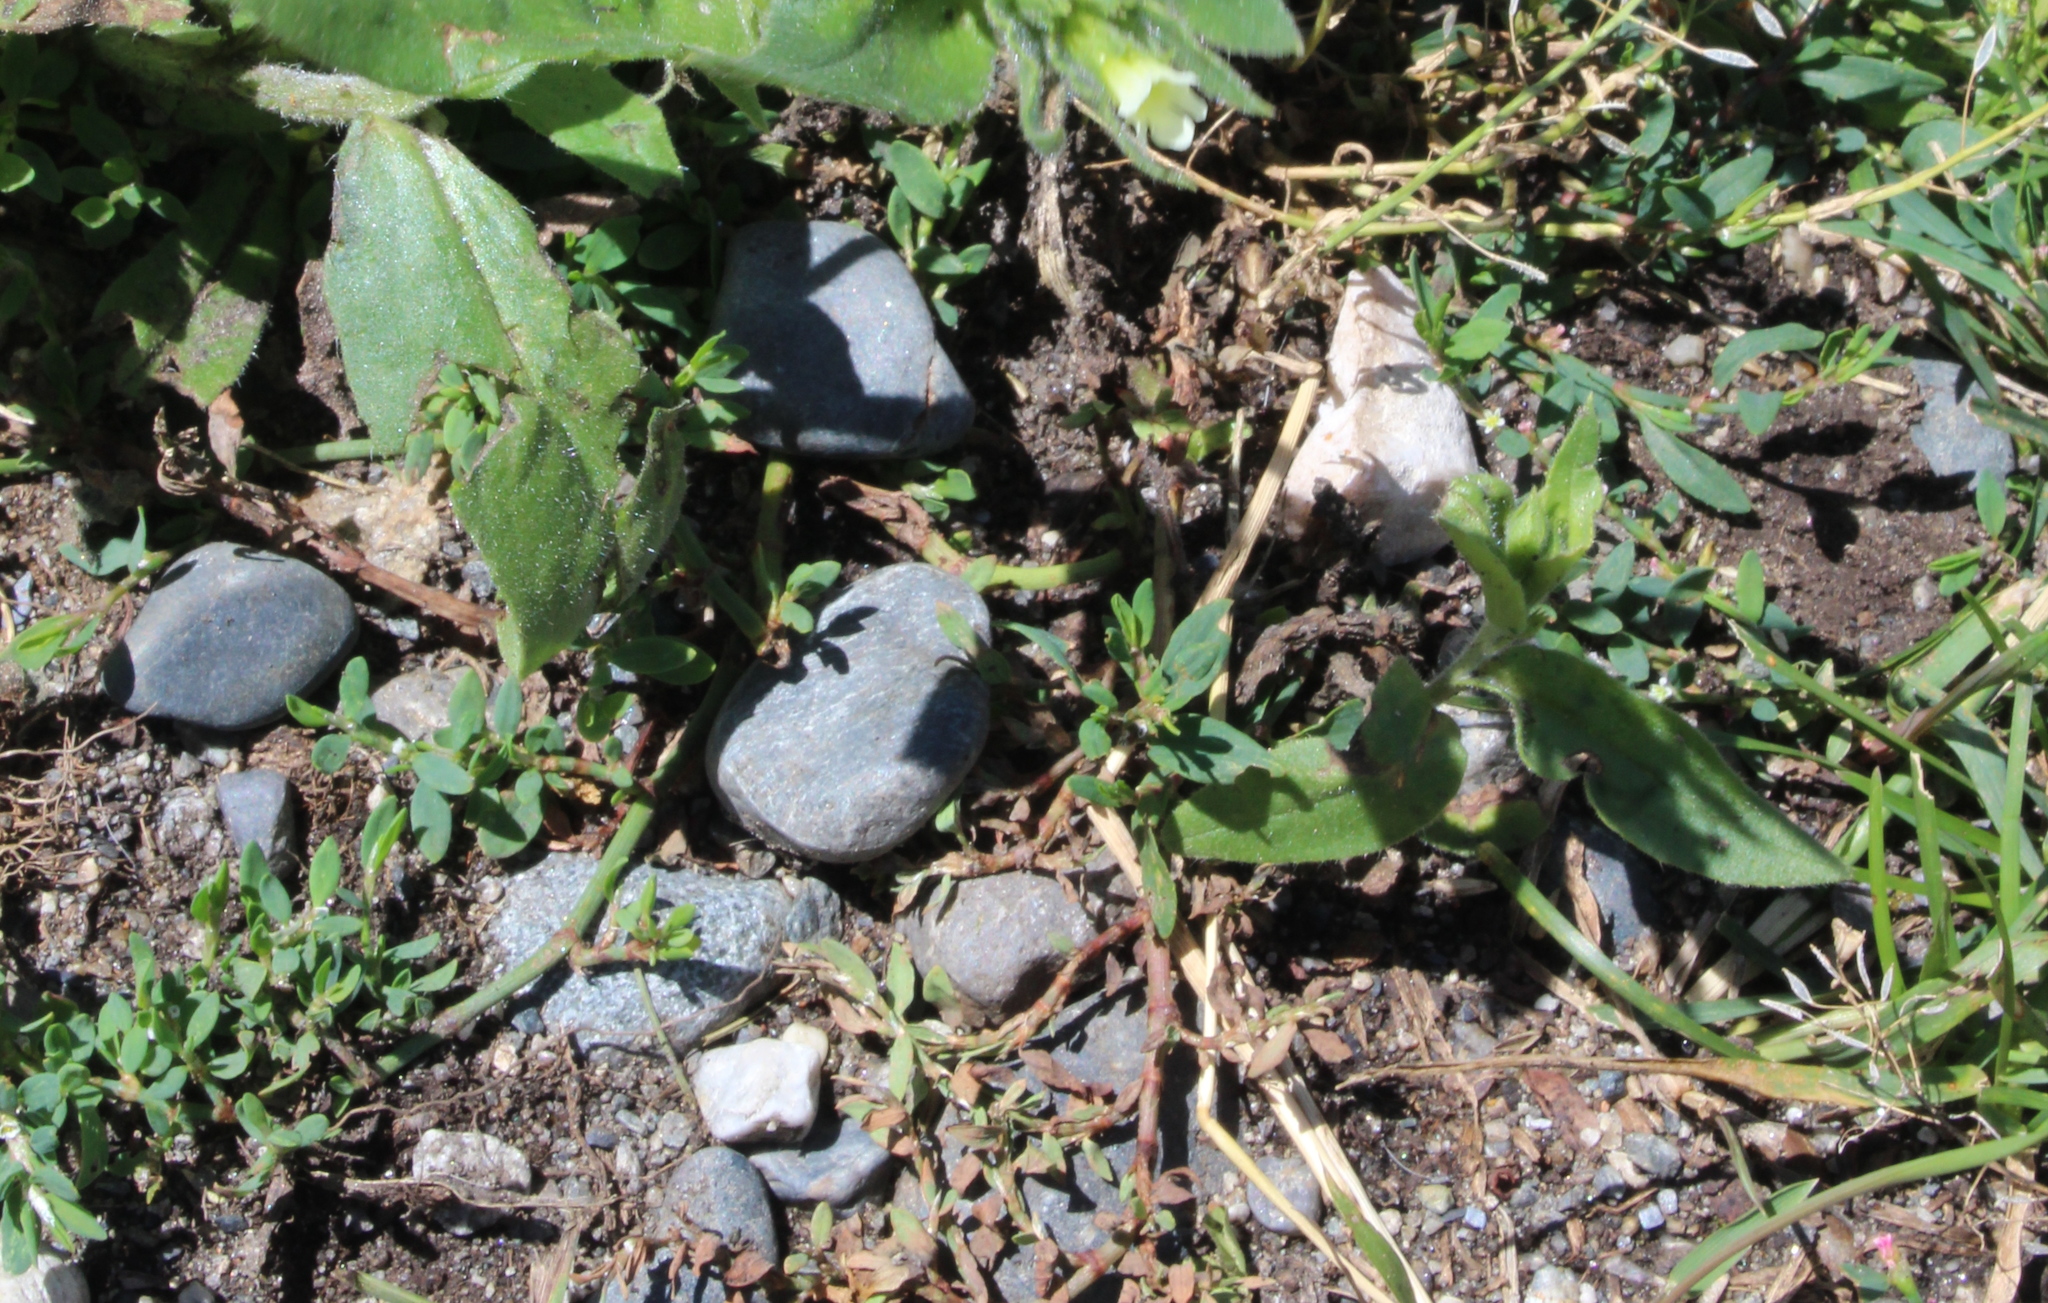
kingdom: Plantae
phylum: Tracheophyta
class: Magnoliopsida
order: Caryophyllales
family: Polygonaceae
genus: Polygonum
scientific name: Polygonum
